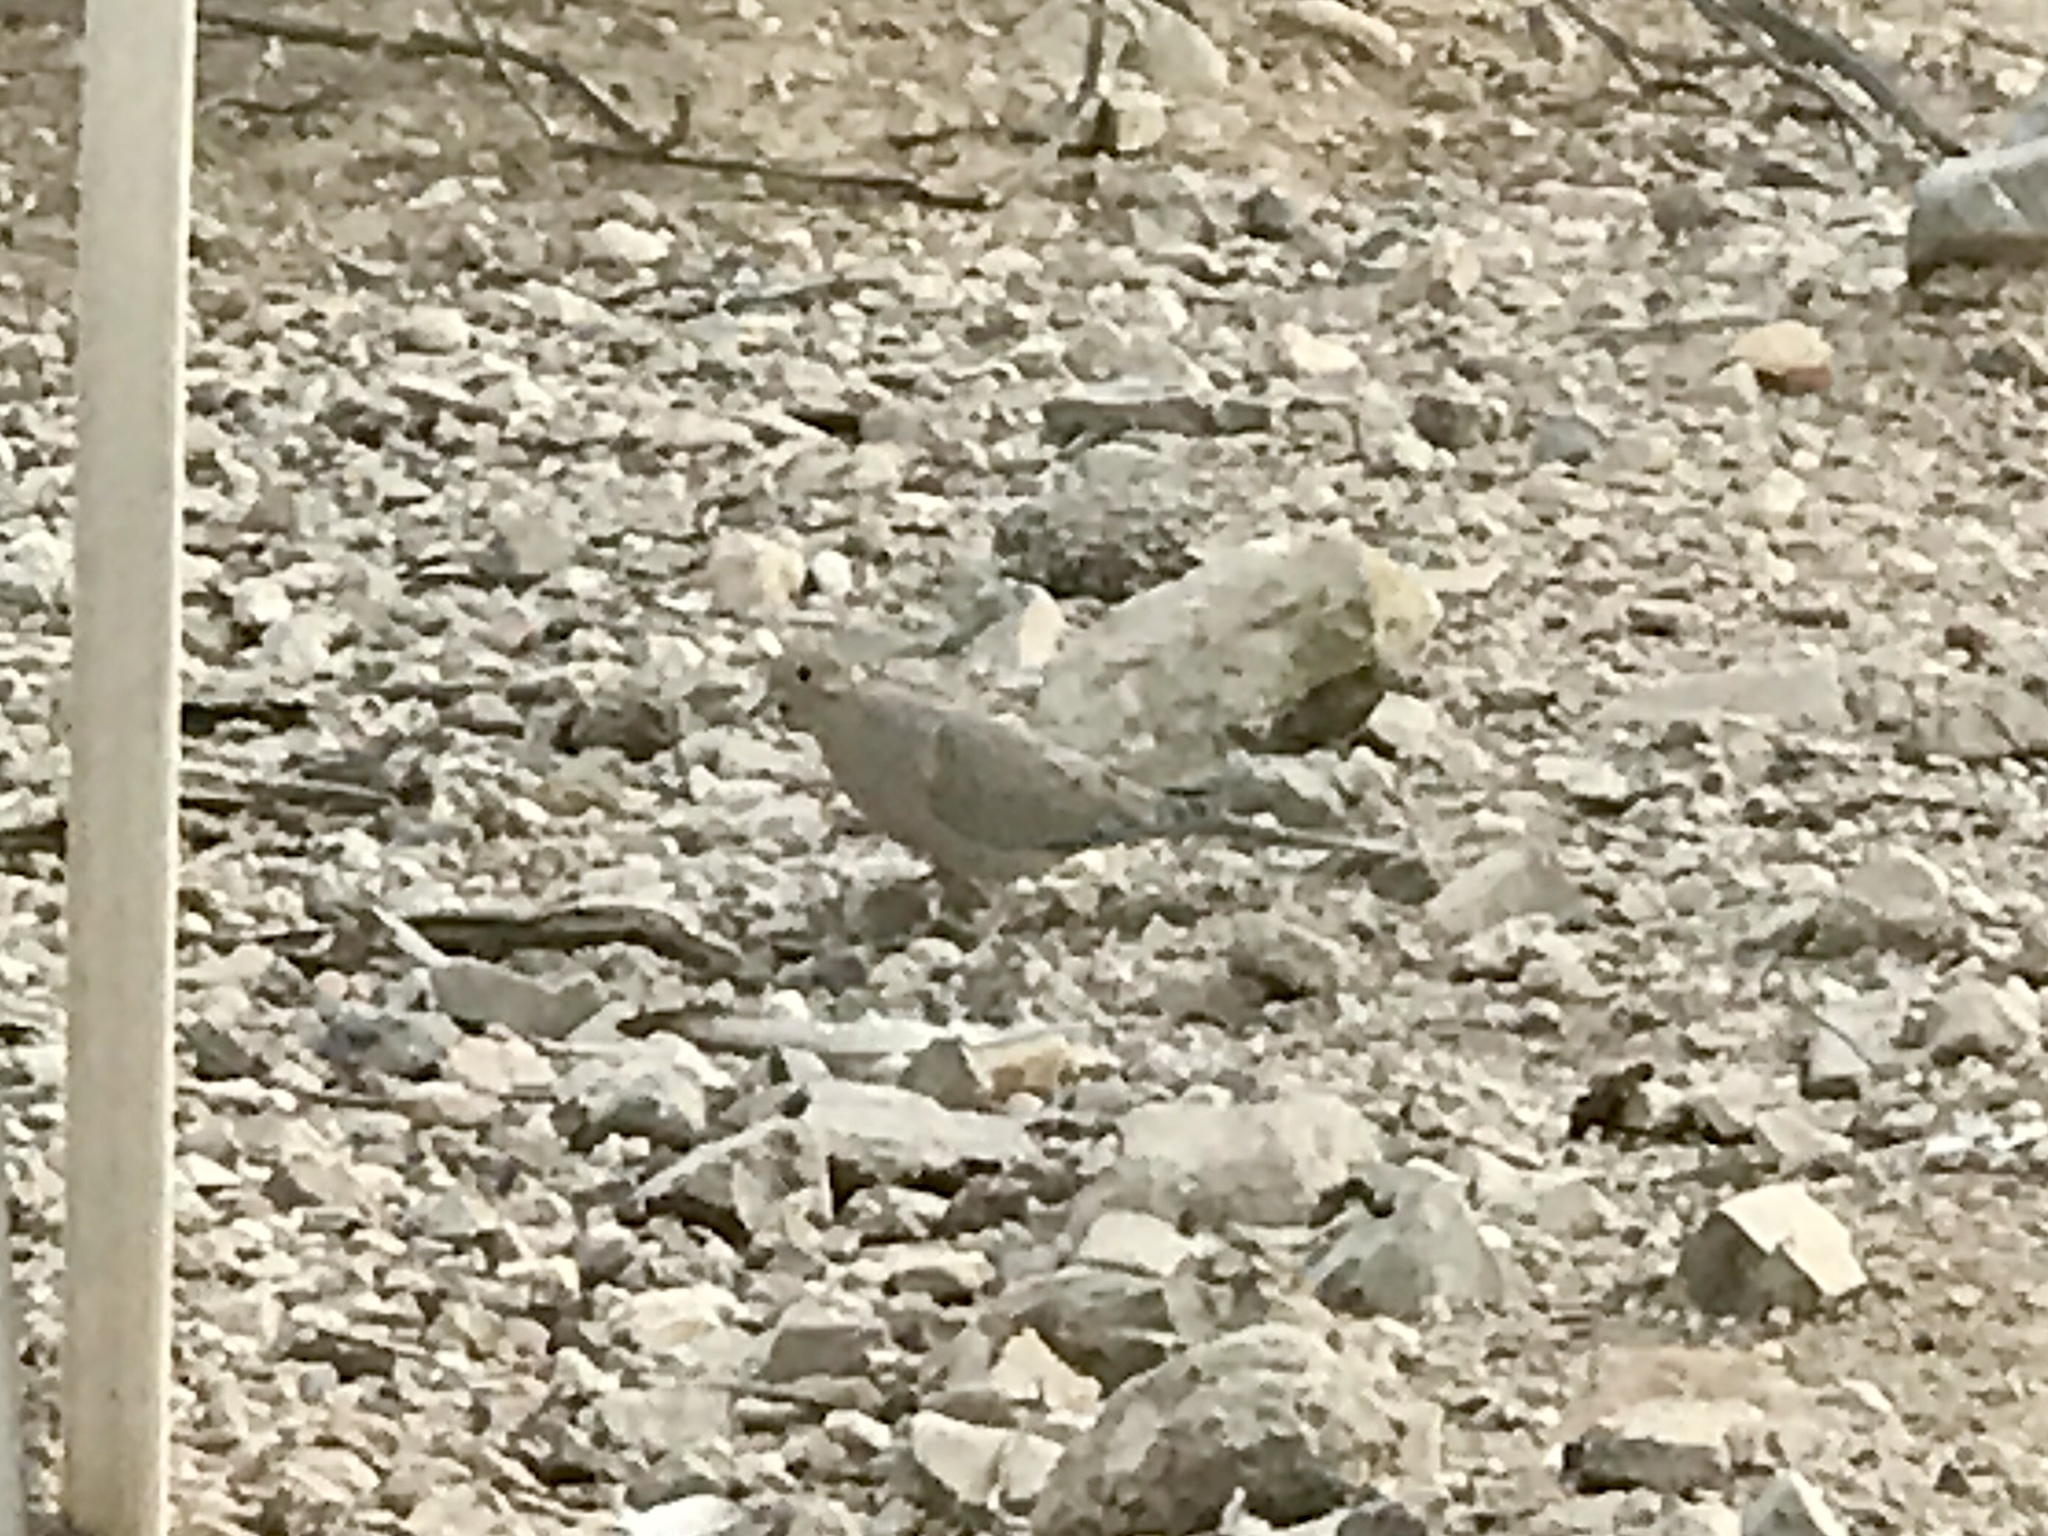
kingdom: Animalia
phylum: Chordata
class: Aves
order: Columbiformes
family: Columbidae
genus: Zenaida
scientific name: Zenaida macroura
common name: Mourning dove
